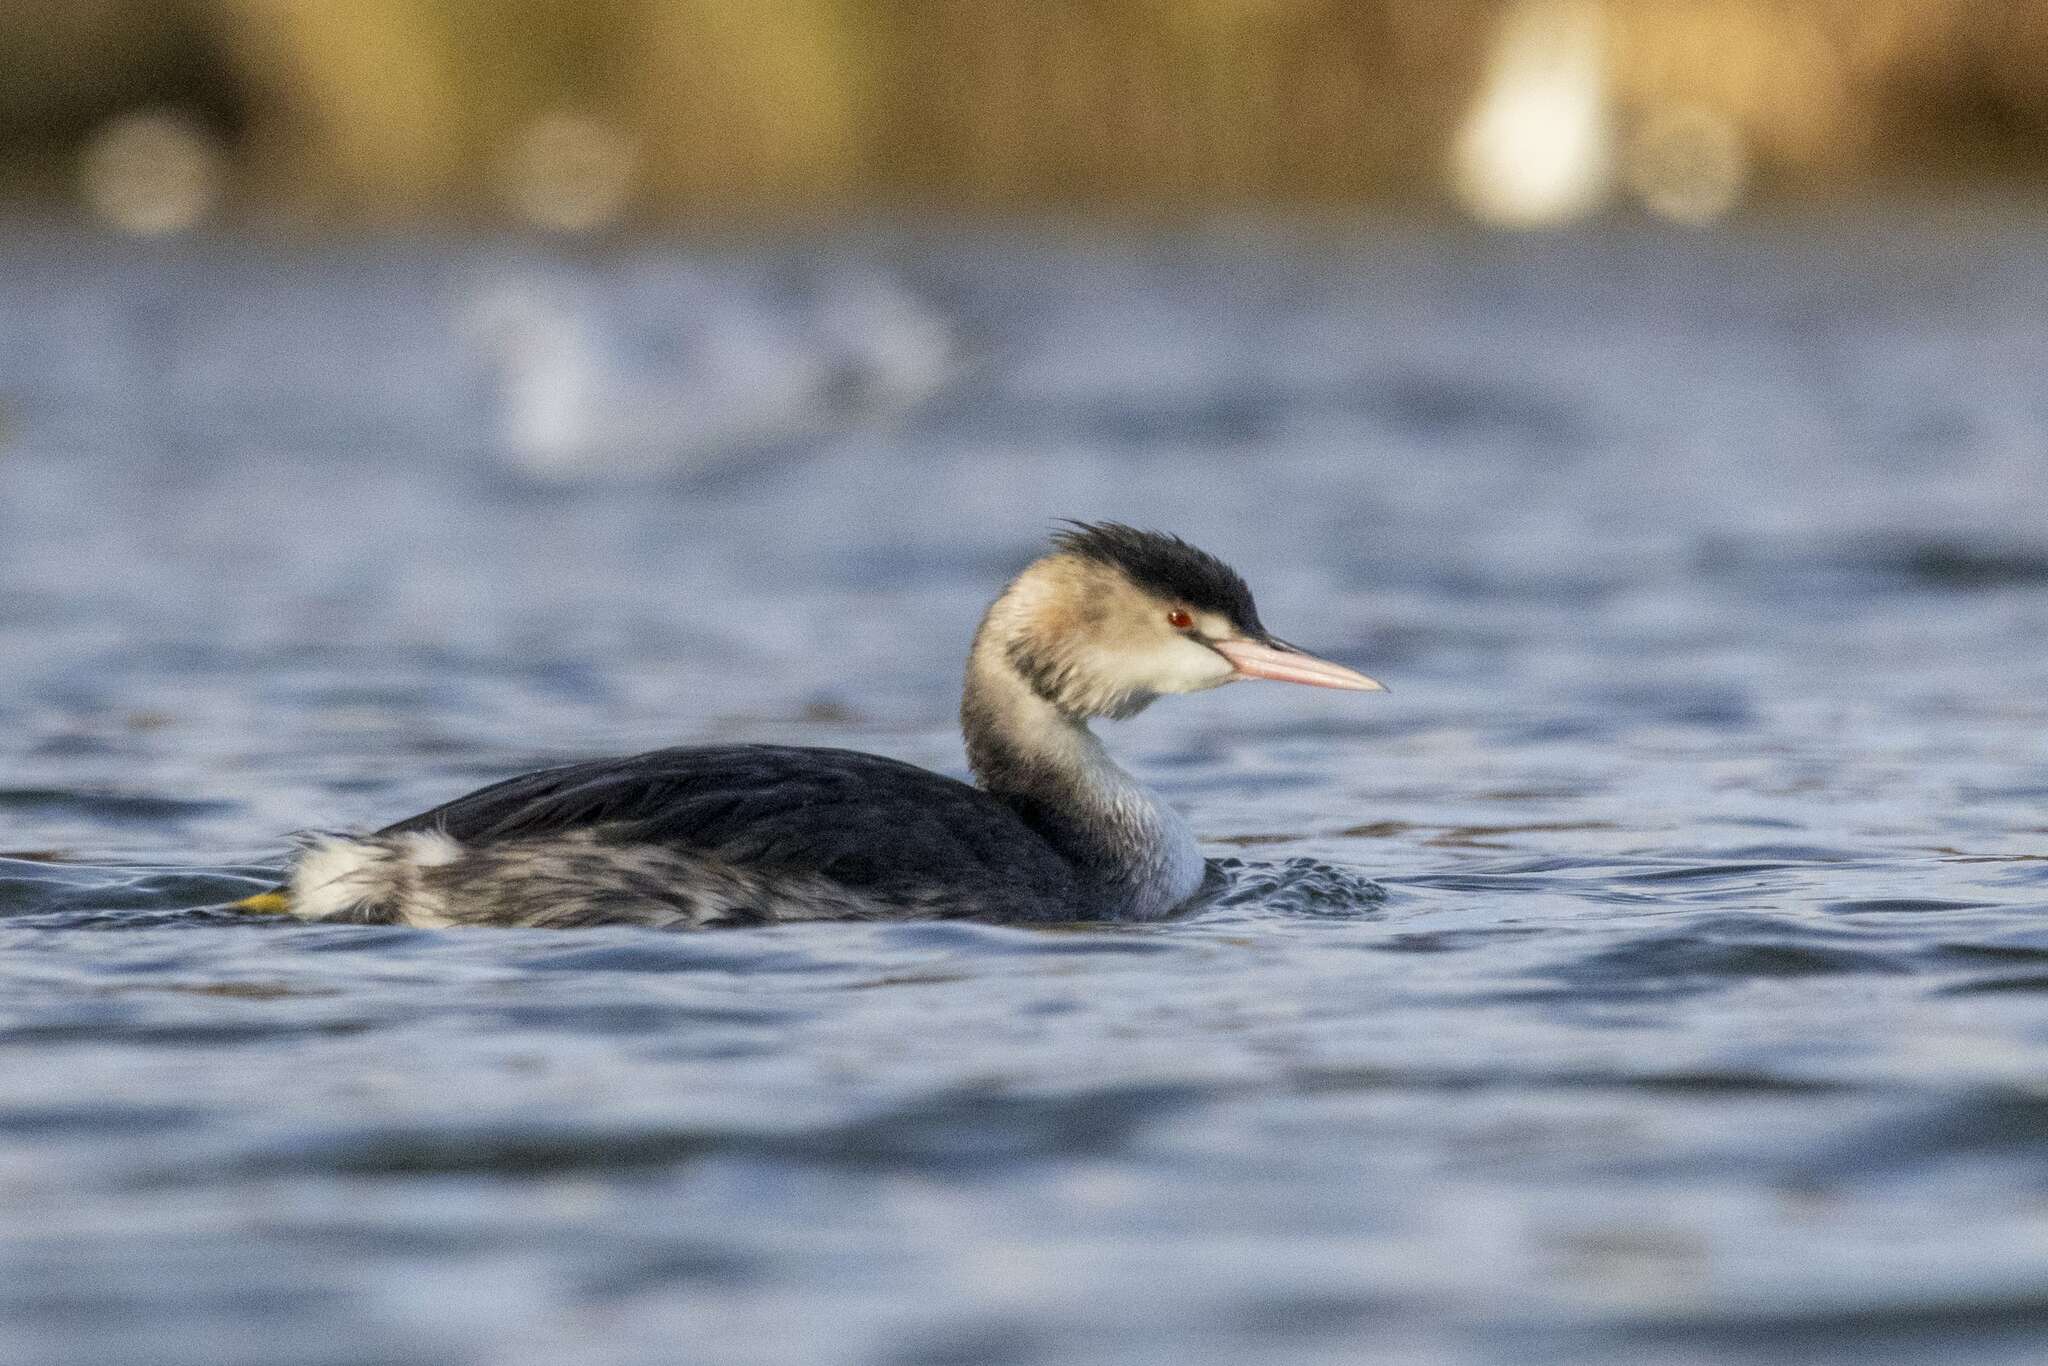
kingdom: Animalia
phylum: Chordata
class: Aves
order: Podicipediformes
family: Podicipedidae
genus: Podiceps
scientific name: Podiceps cristatus
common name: Great crested grebe
